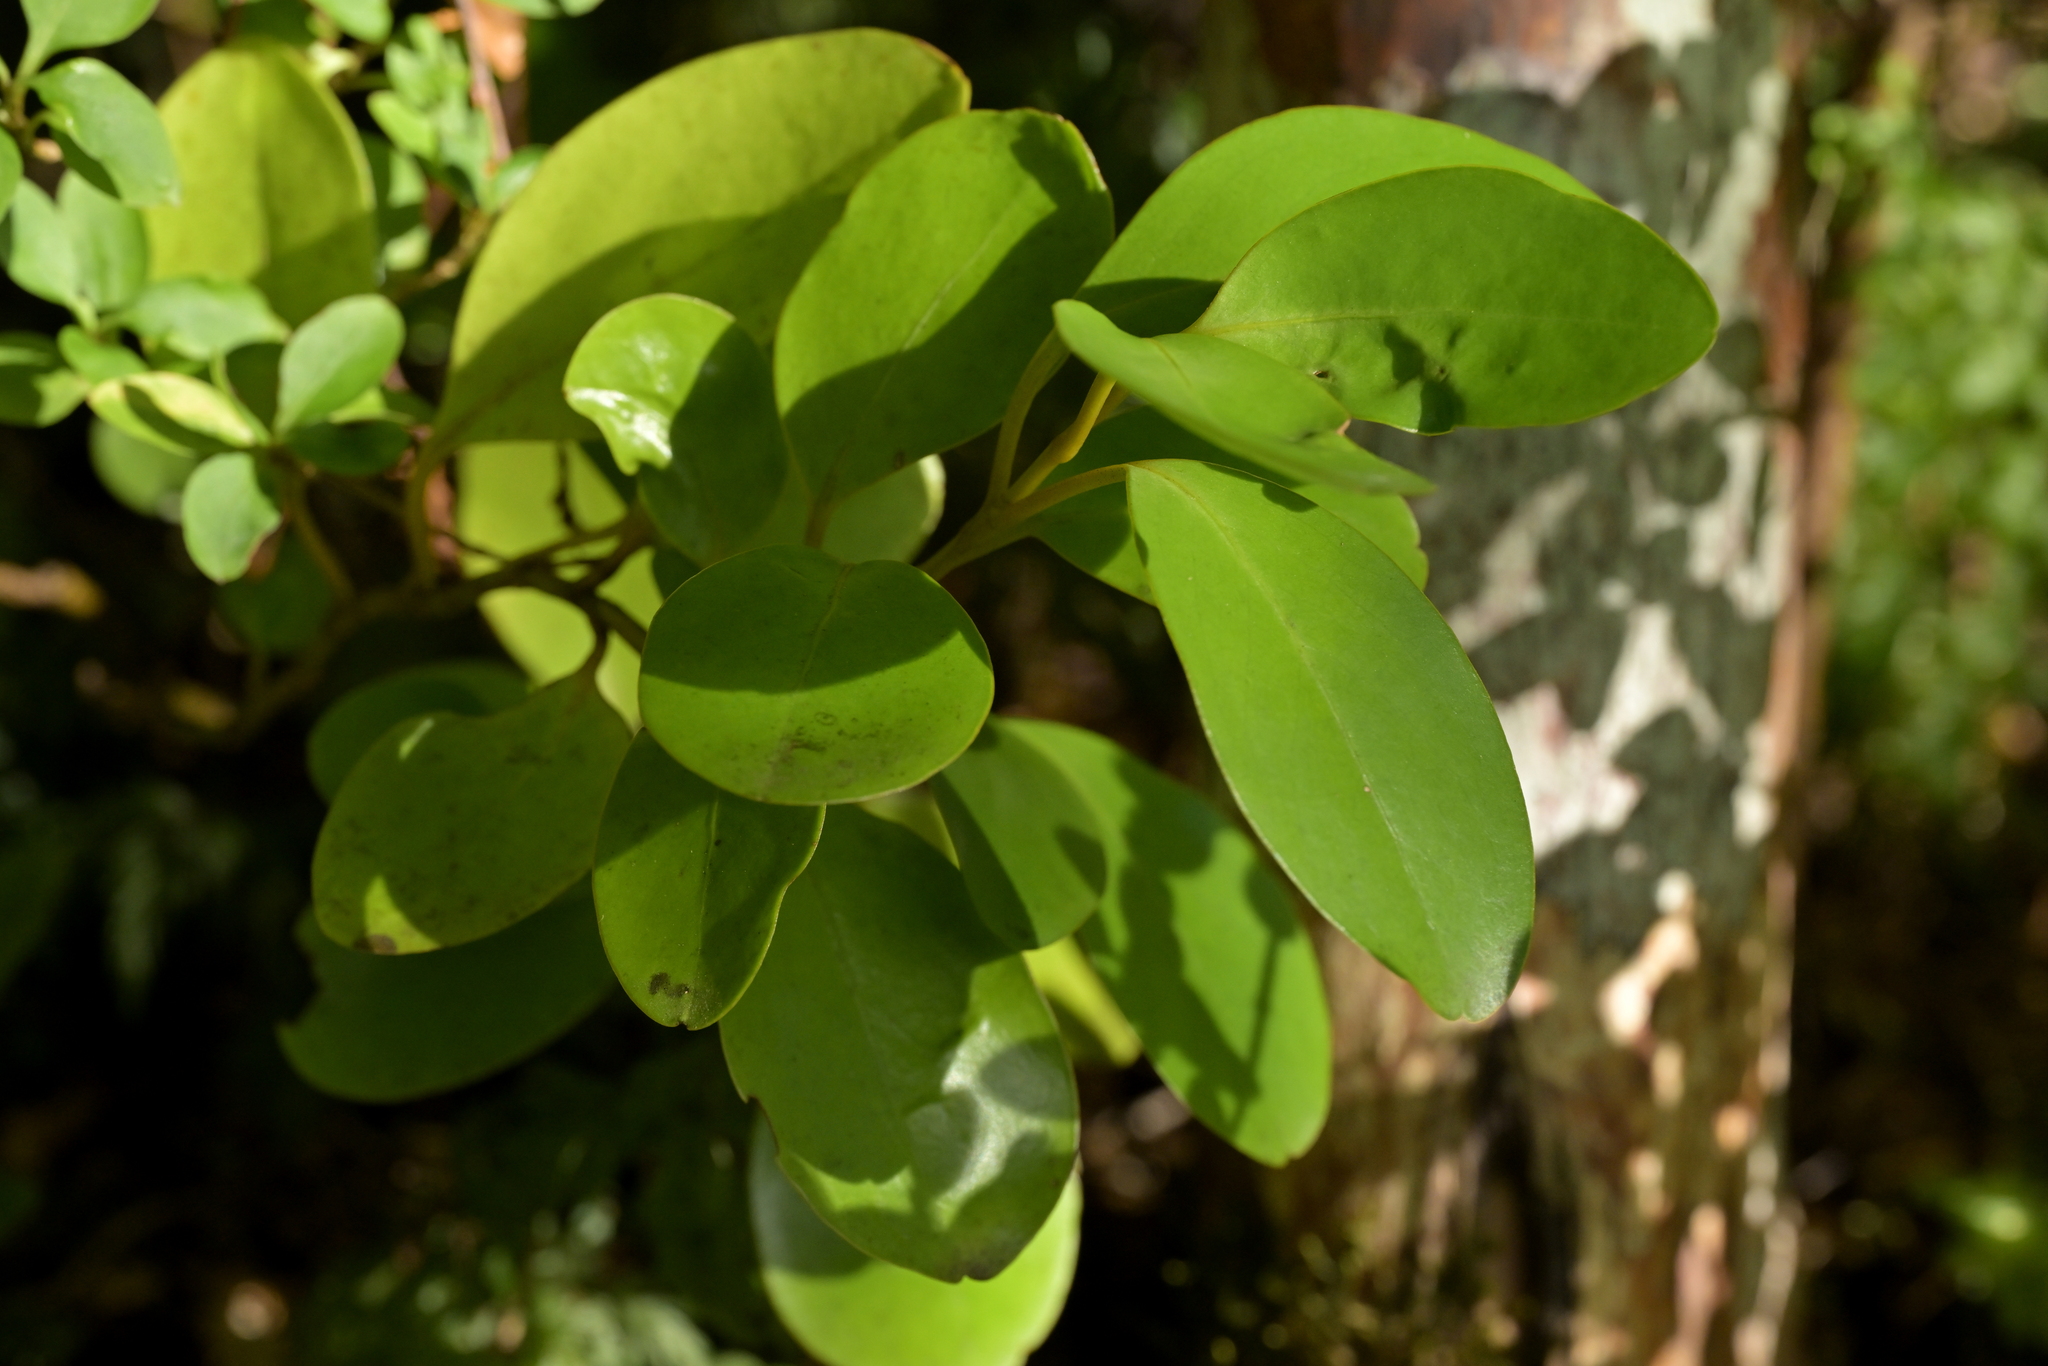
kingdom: Plantae
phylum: Tracheophyta
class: Magnoliopsida
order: Apiales
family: Griseliniaceae
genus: Griselinia
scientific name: Griselinia littoralis
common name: New zealand broadleaf
